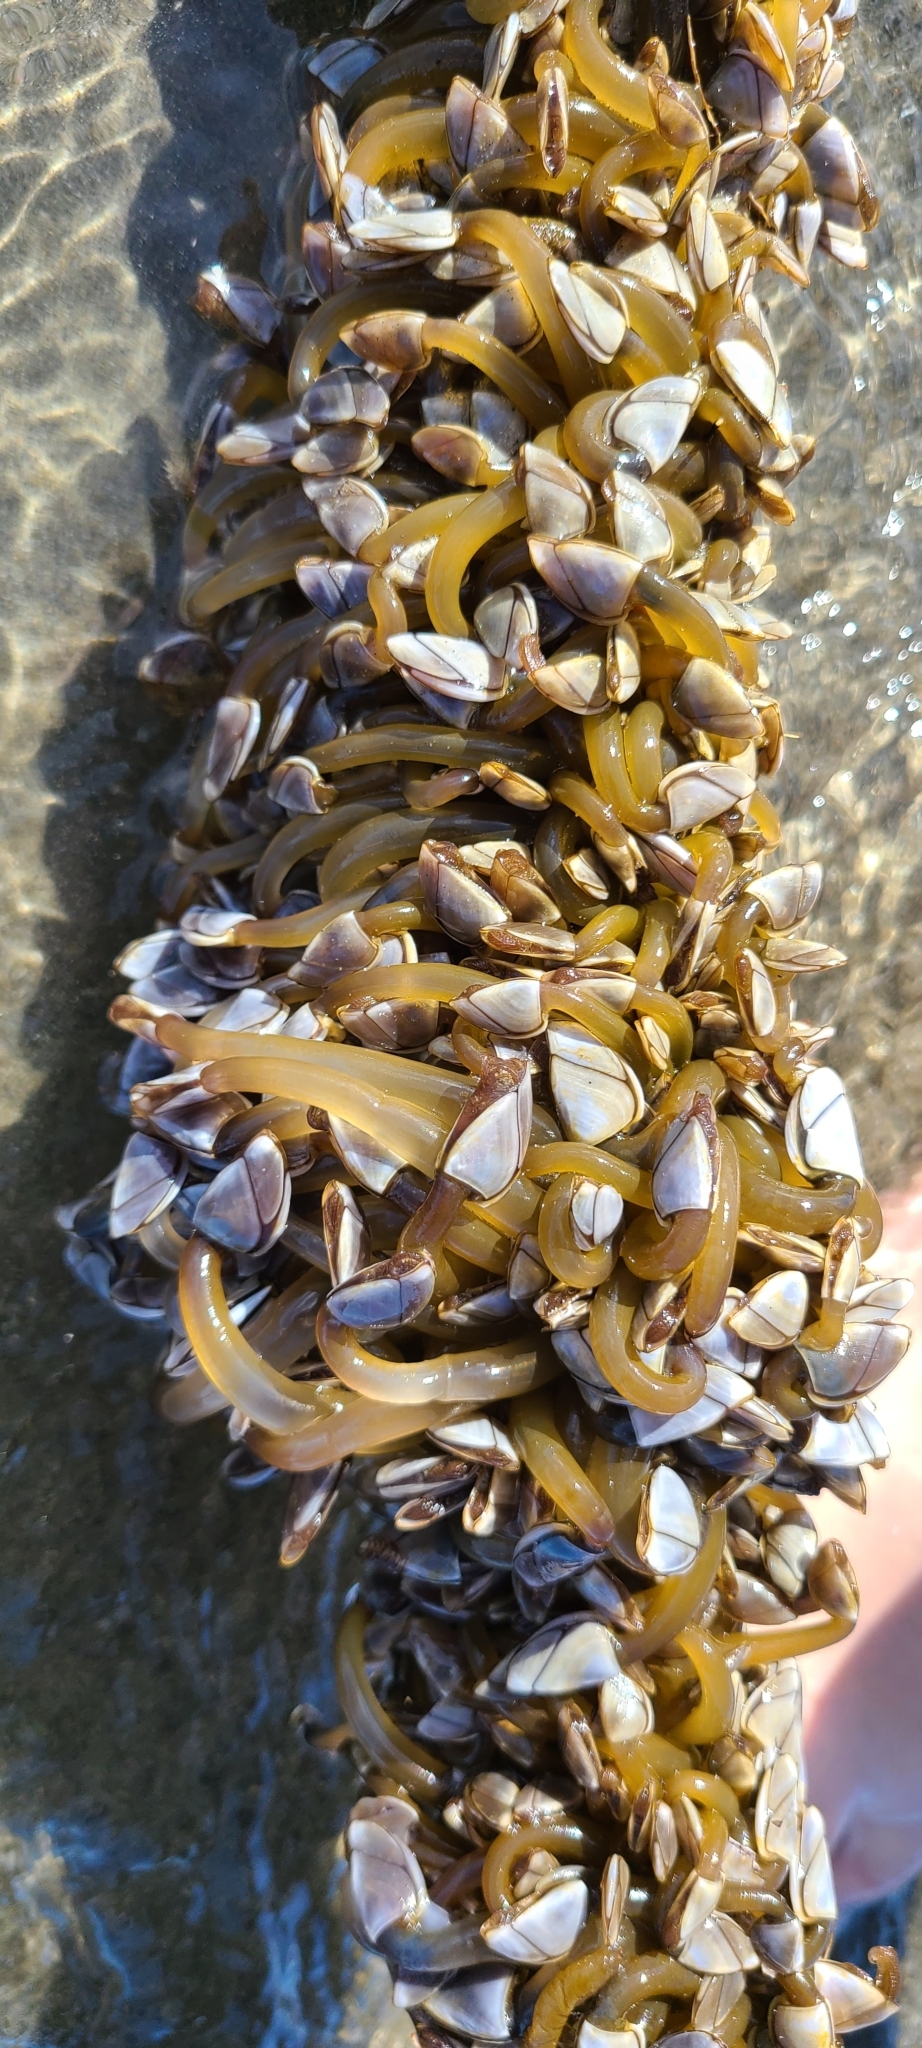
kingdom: Animalia
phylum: Arthropoda
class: Maxillopoda
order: Pedunculata
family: Lepadidae
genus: Lepas
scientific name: Lepas anatifera
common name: Common goose barnacle
